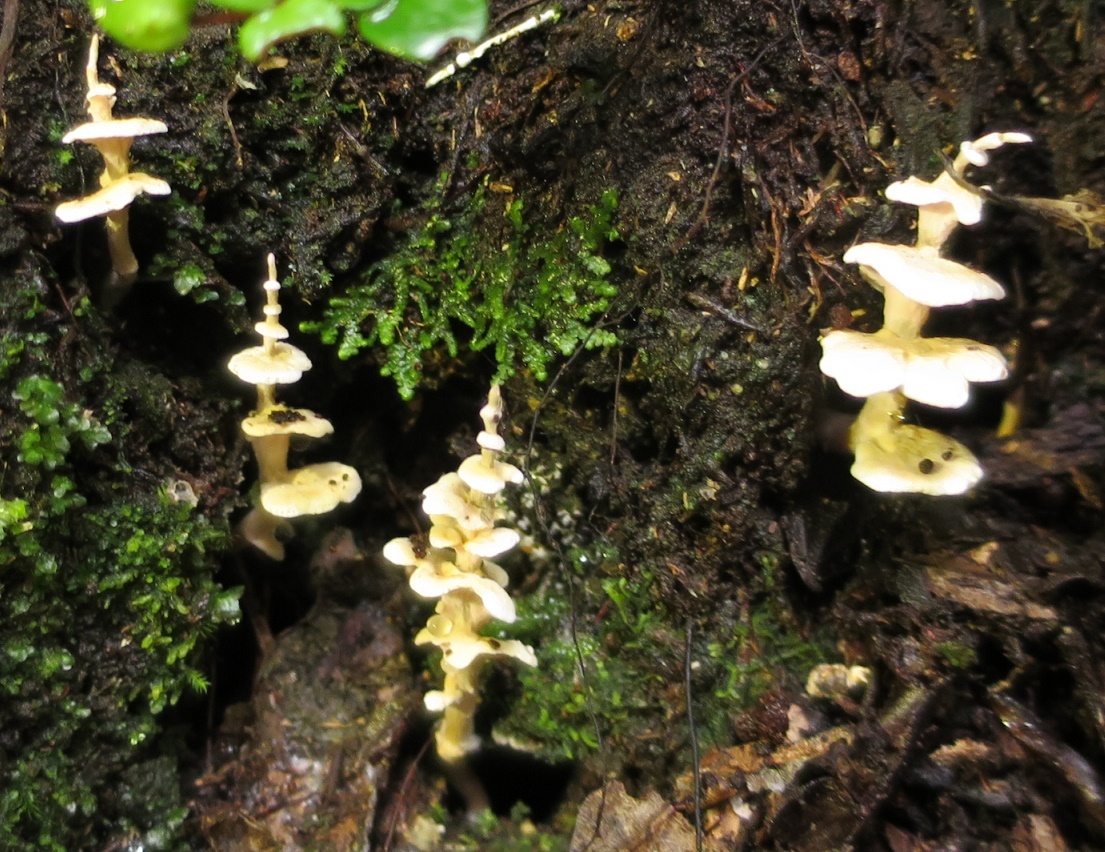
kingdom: Fungi
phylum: Basidiomycota
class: Agaricomycetes
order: Amylocorticiales
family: Amylocorticiaceae
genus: Podoserpula
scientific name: Podoserpula pusio
